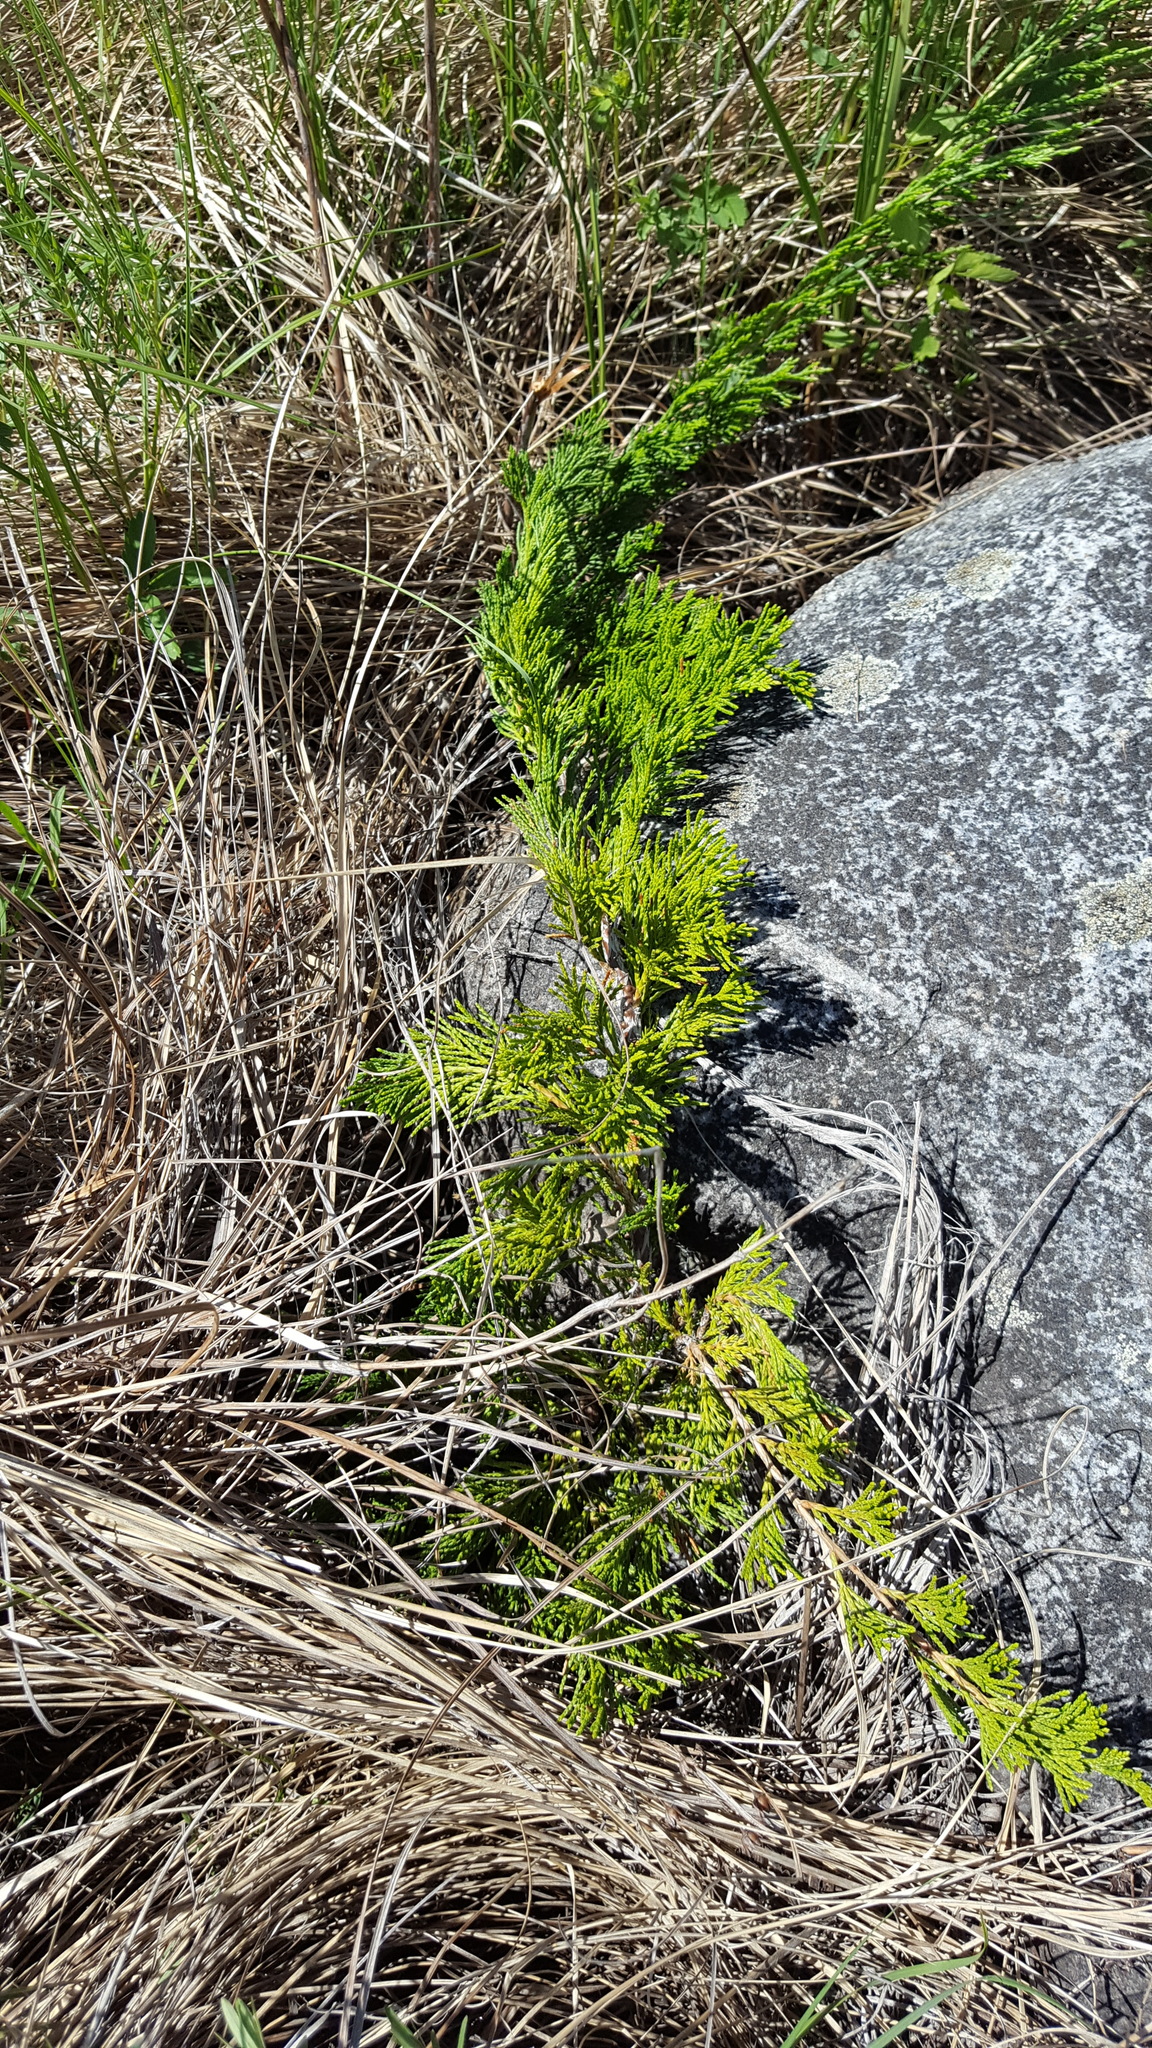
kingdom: Plantae
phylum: Tracheophyta
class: Pinopsida
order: Pinales
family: Cupressaceae
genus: Juniperus
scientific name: Juniperus horizontalis
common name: Creeping juniper
